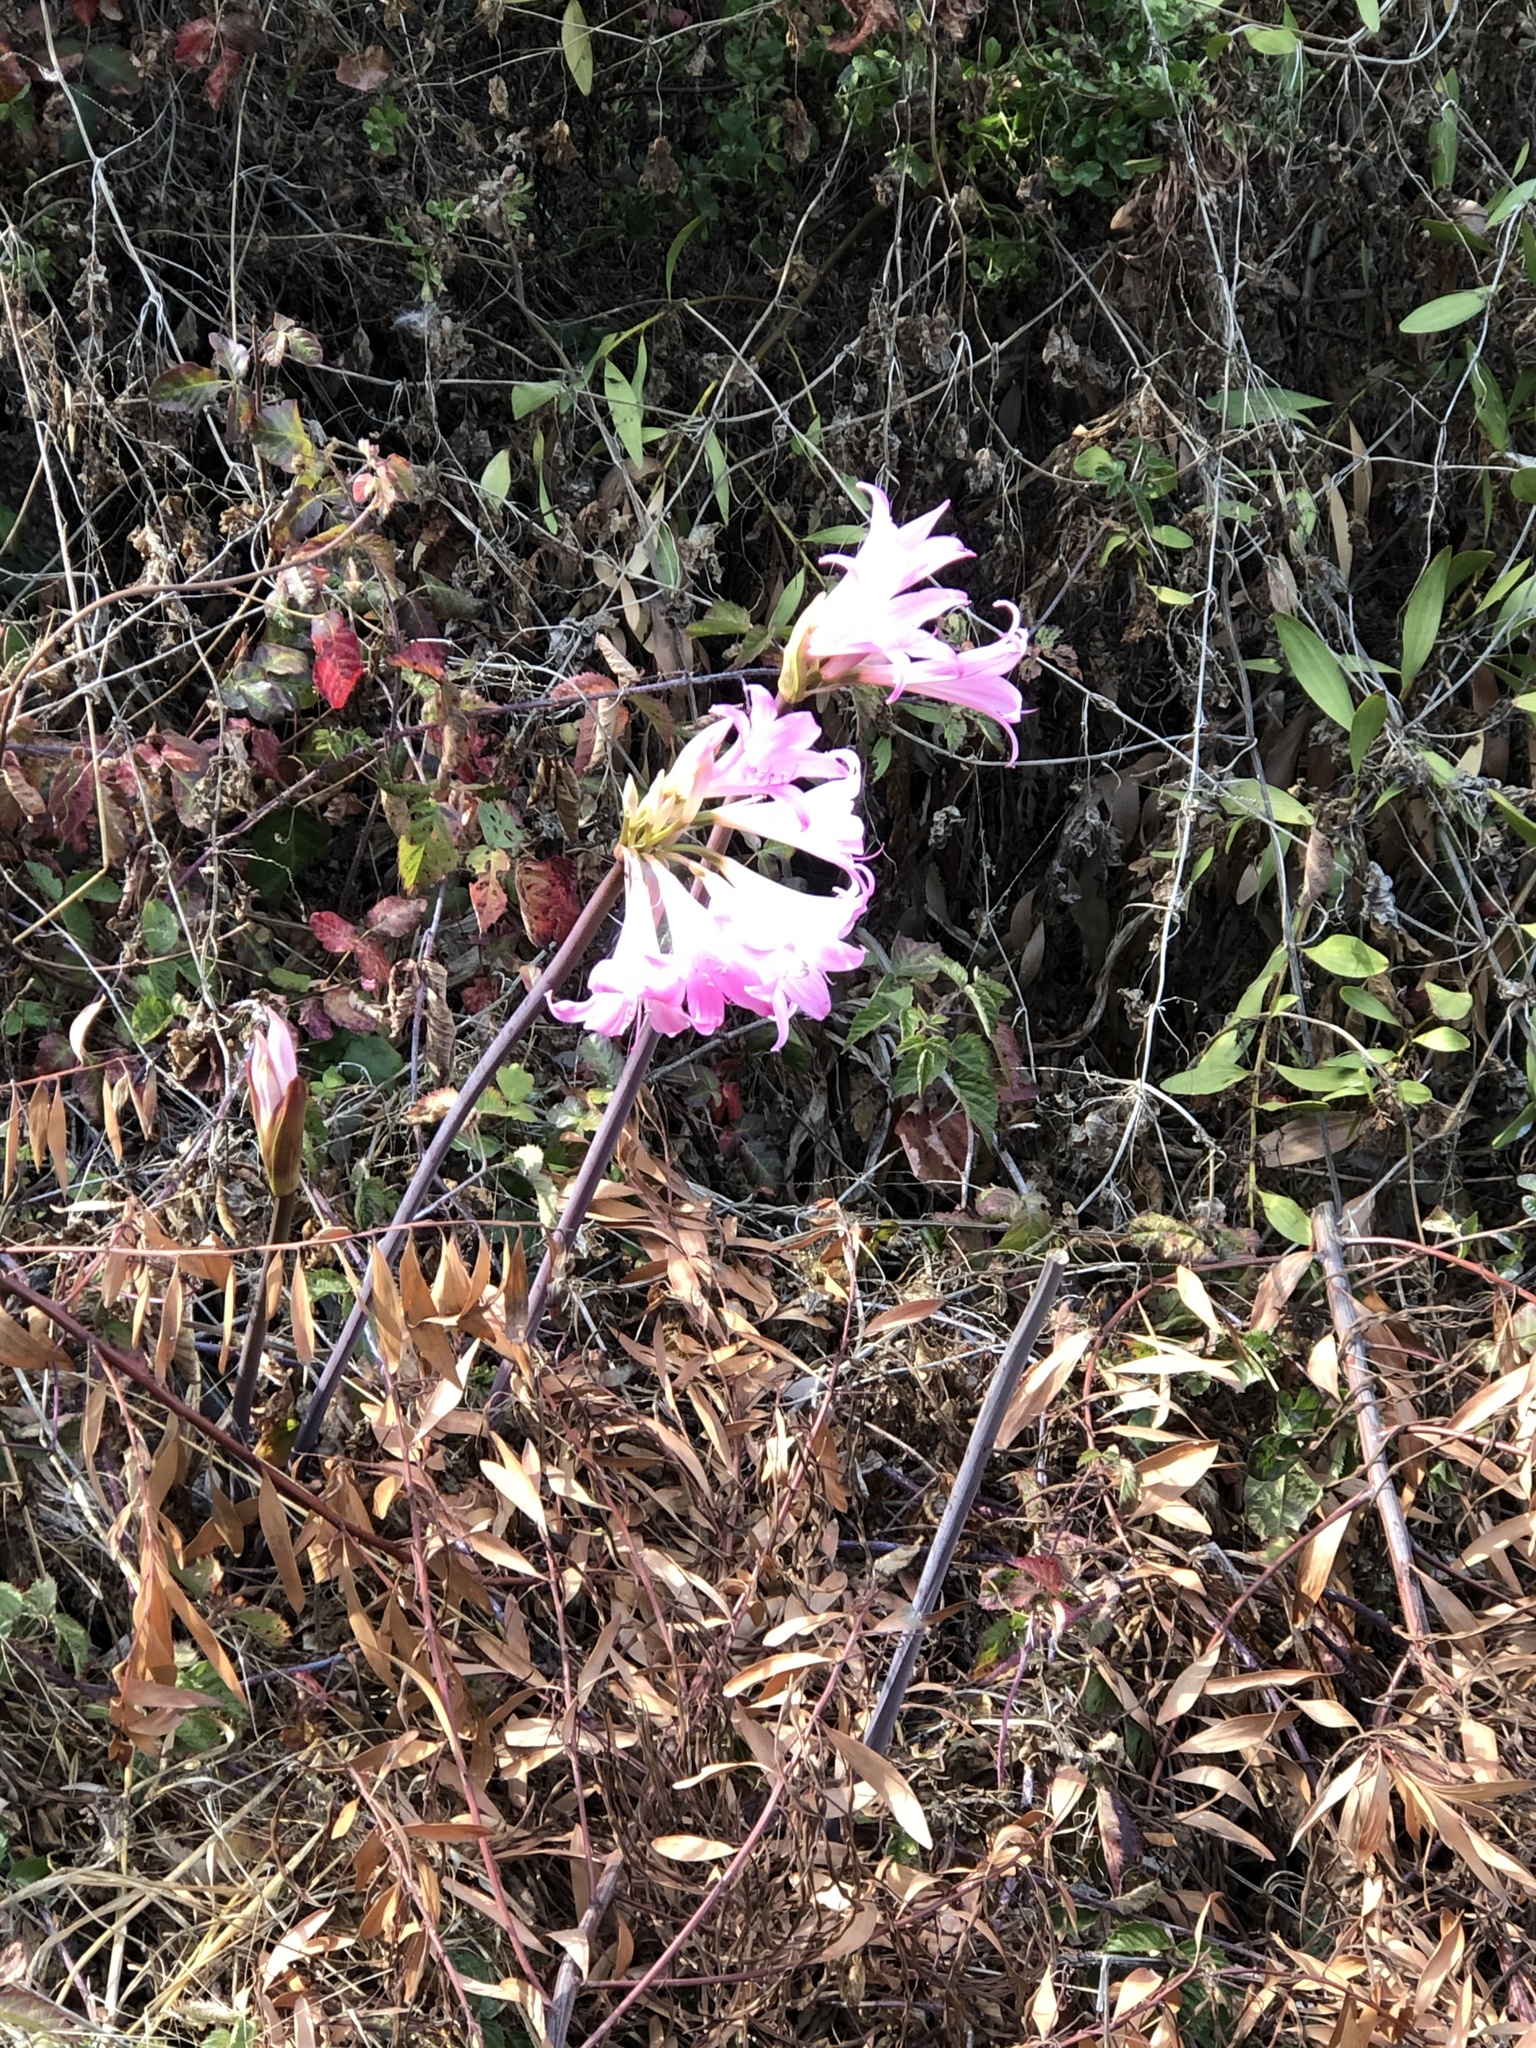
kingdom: Plantae
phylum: Tracheophyta
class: Liliopsida
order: Asparagales
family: Amaryllidaceae
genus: Amaryllis
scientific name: Amaryllis belladonna
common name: Jersey lily
